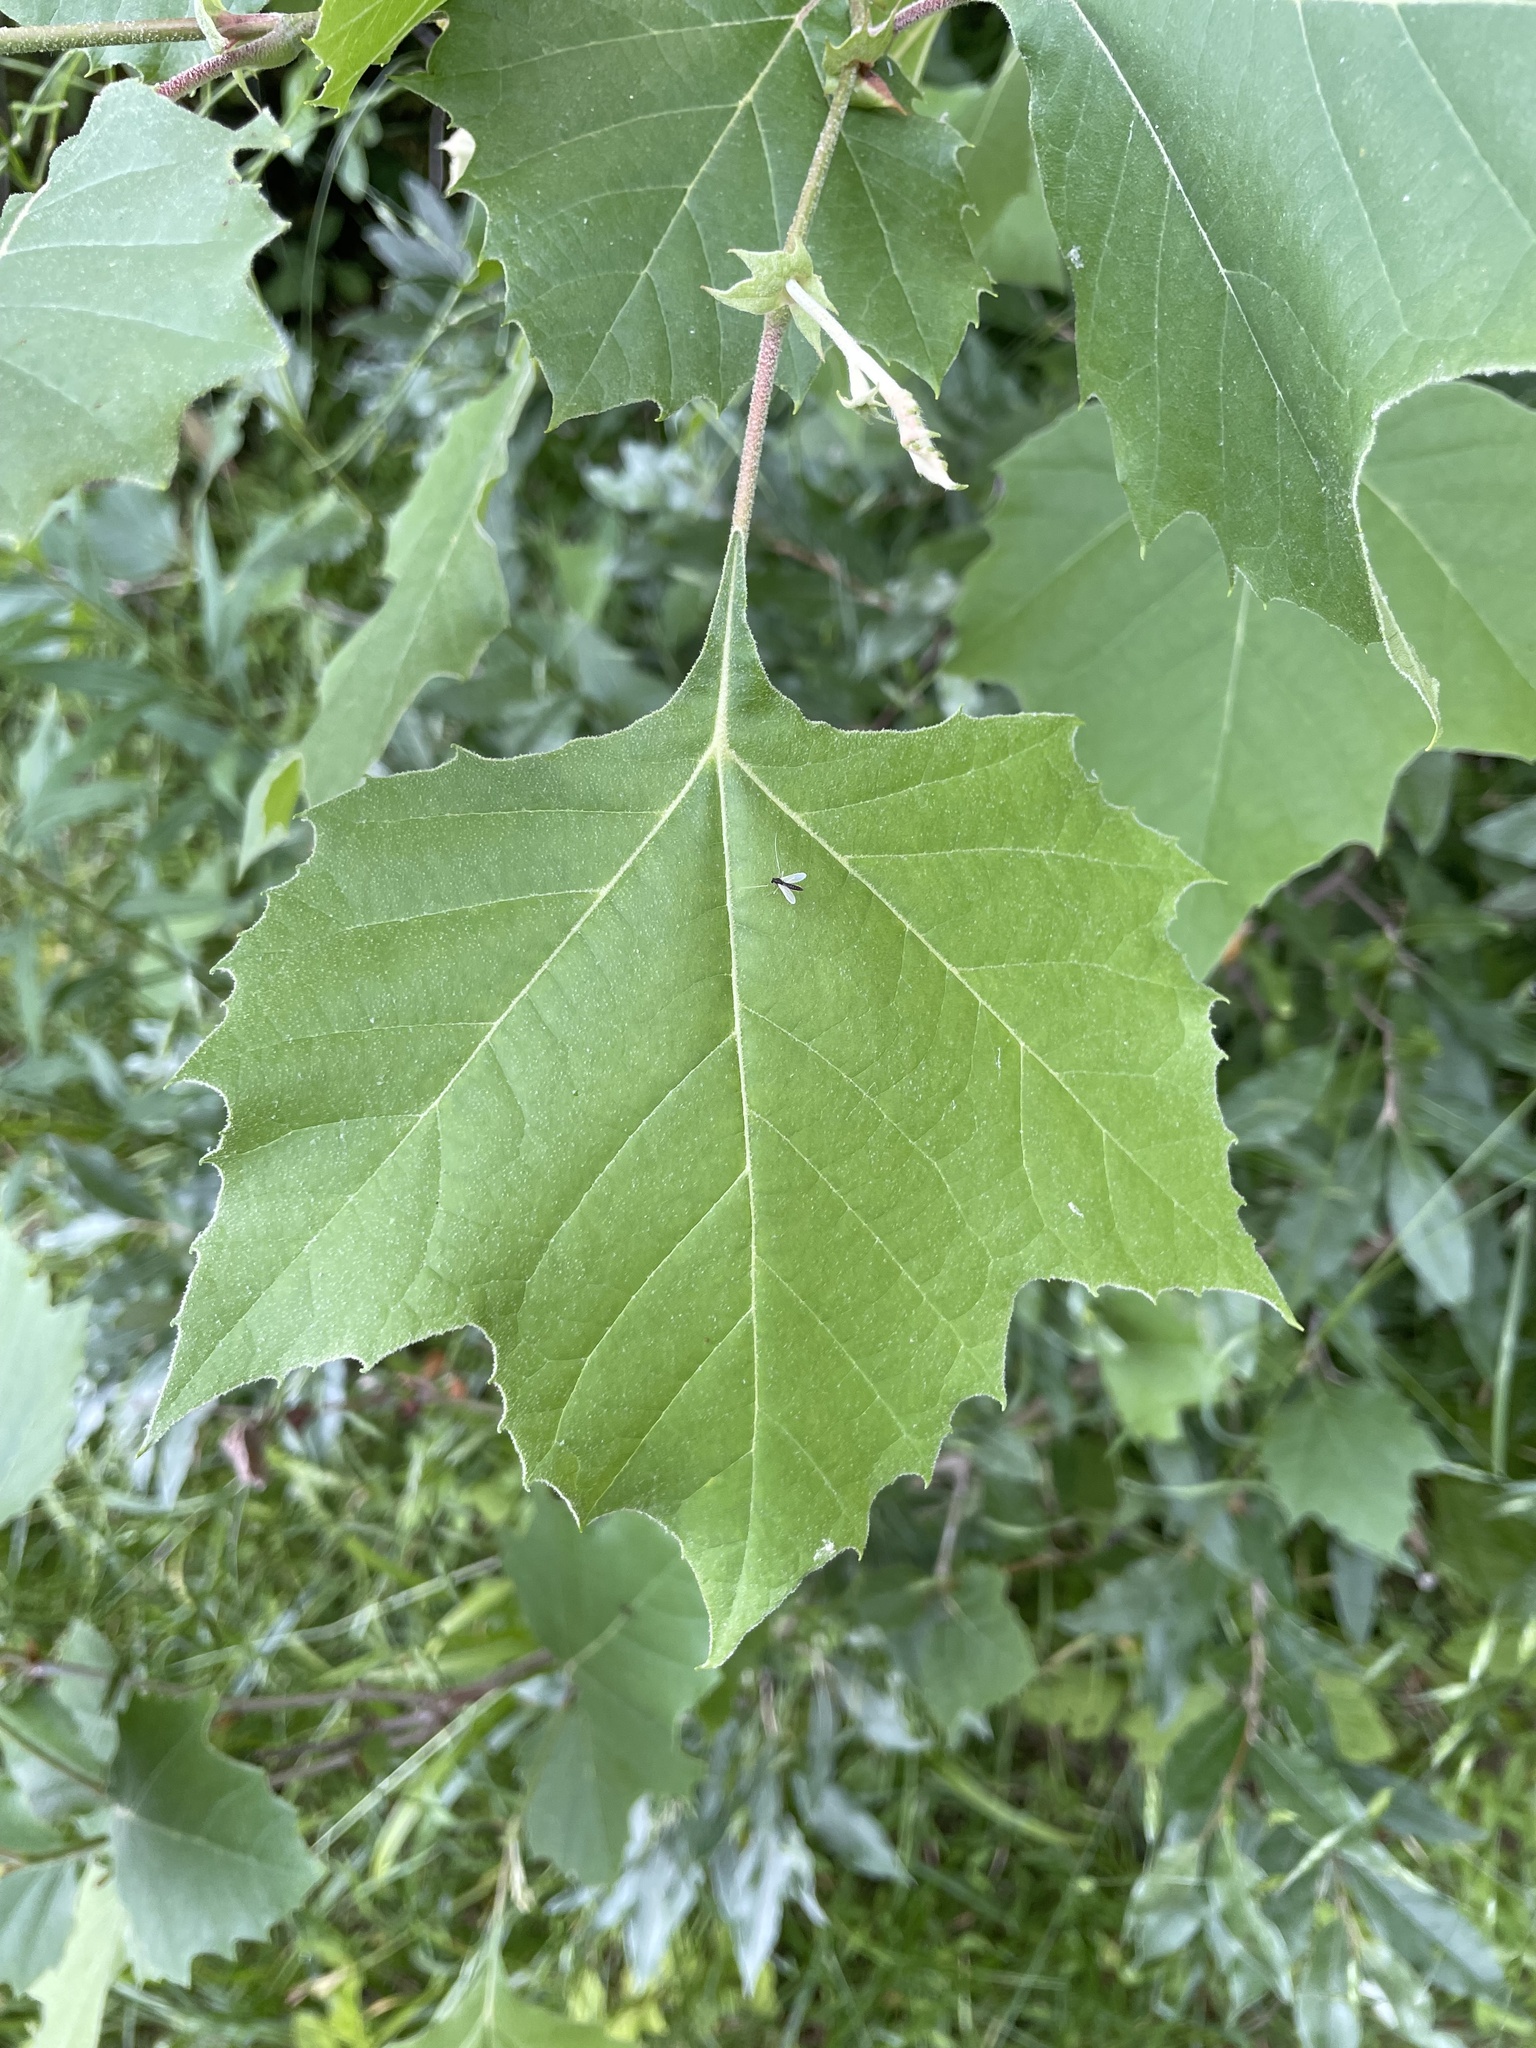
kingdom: Plantae
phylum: Tracheophyta
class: Magnoliopsida
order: Proteales
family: Platanaceae
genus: Platanus
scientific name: Platanus occidentalis
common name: American sycamore
